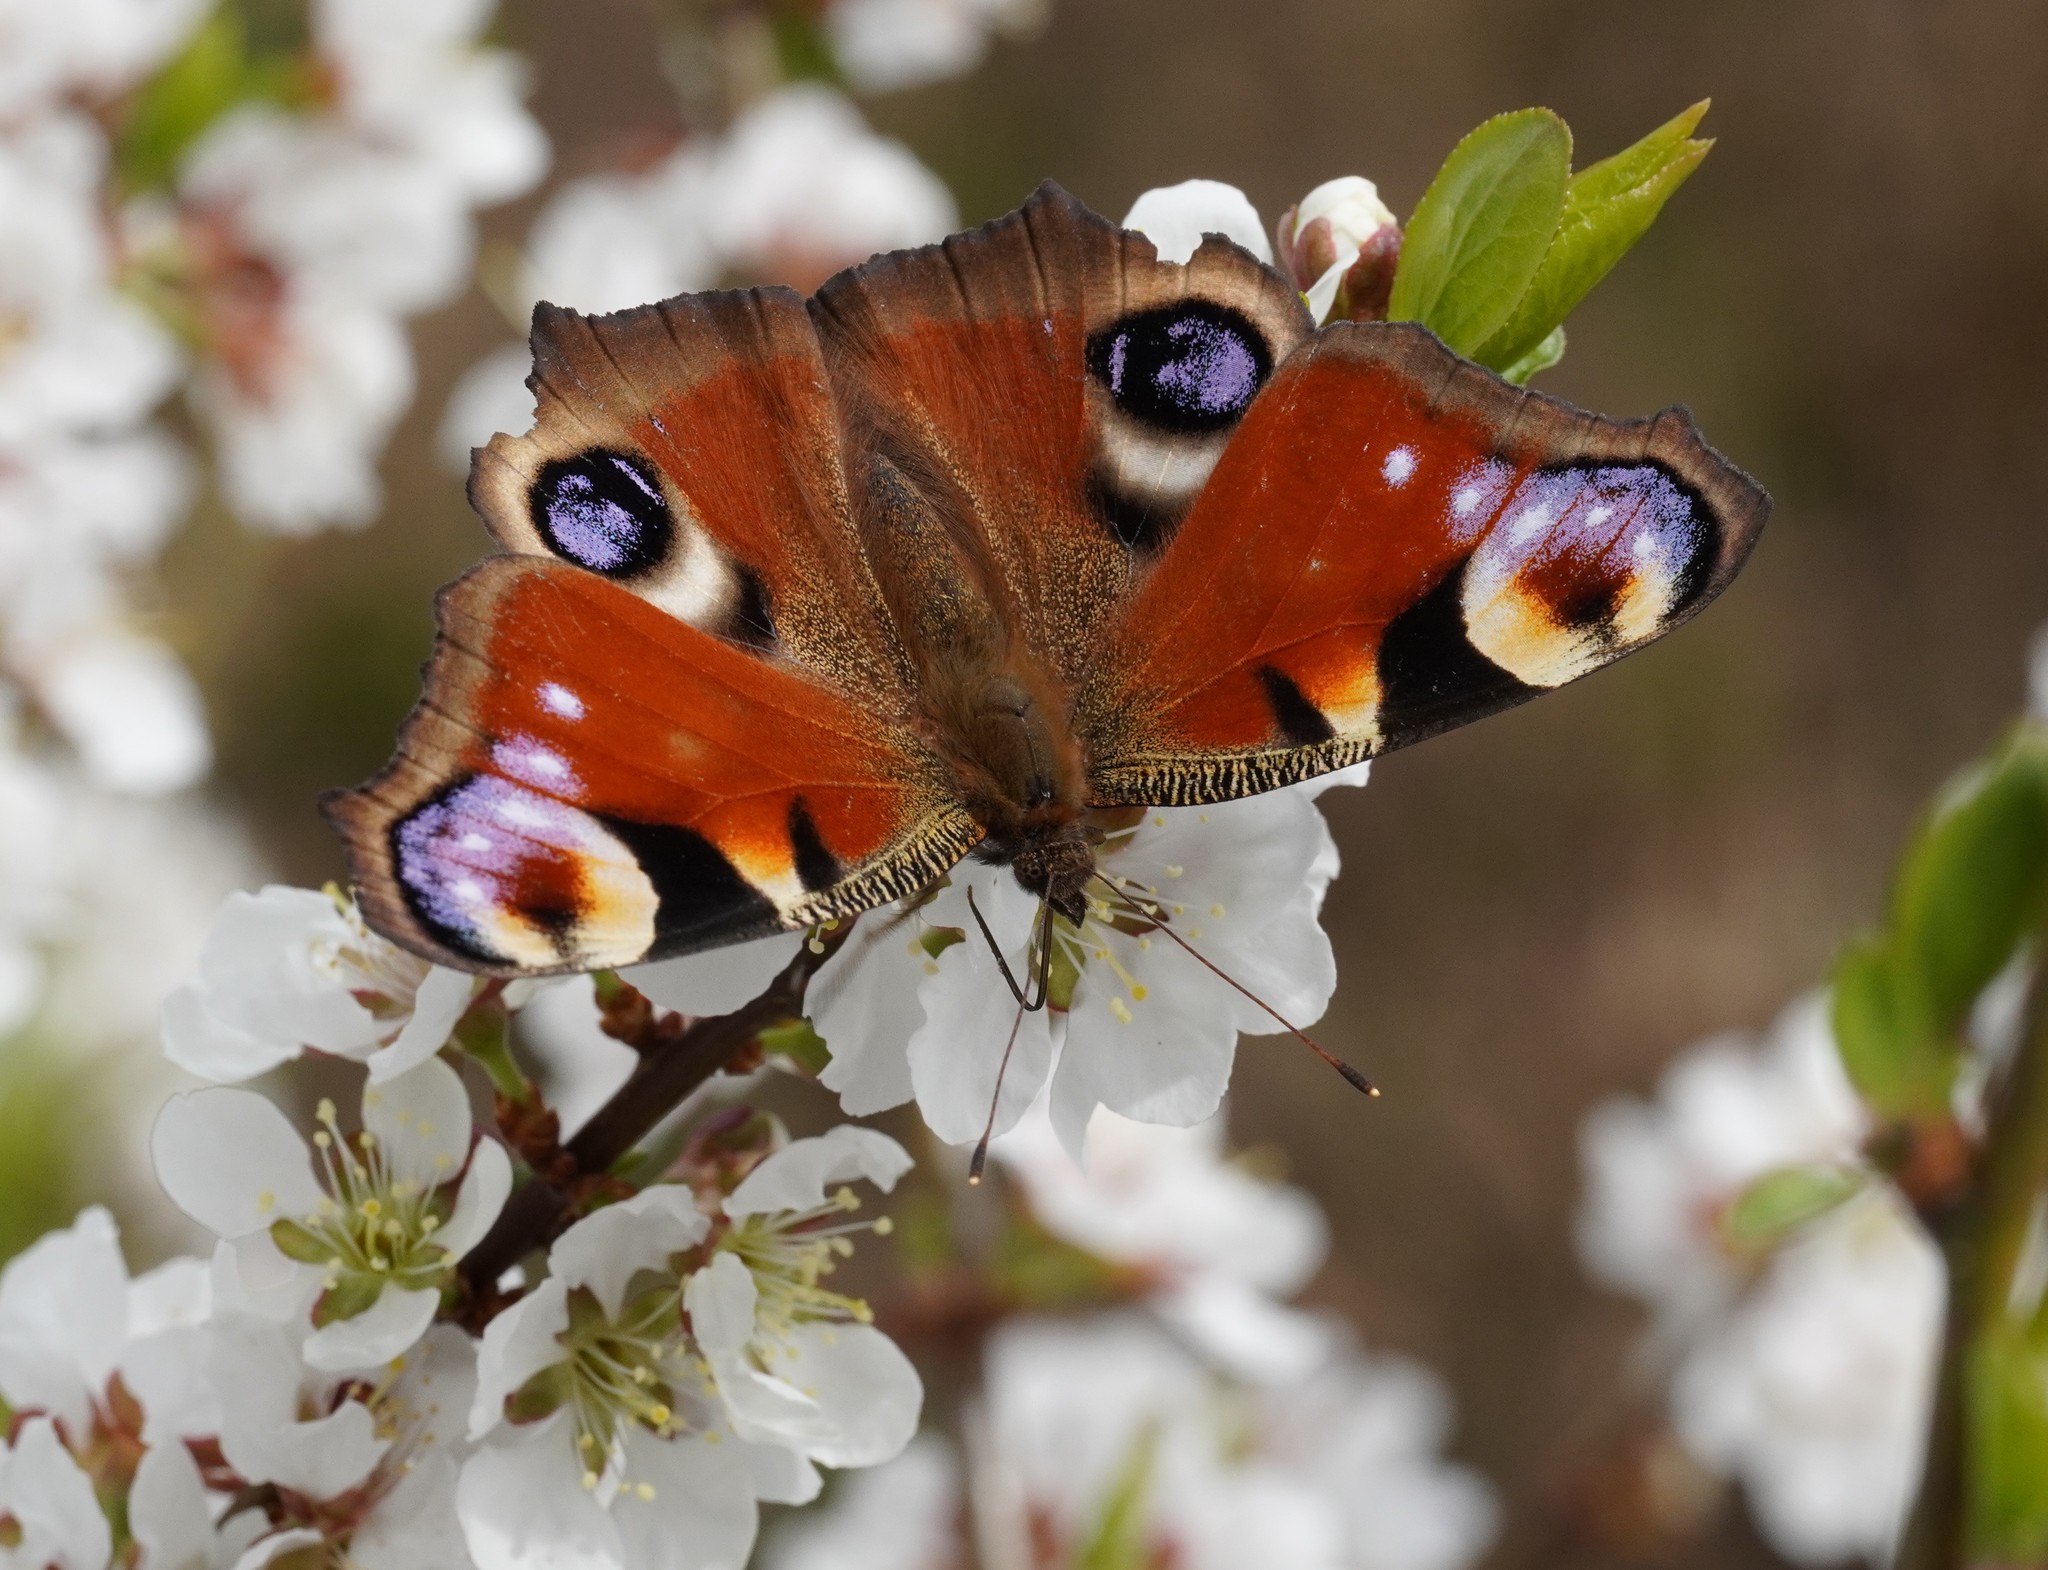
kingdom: Animalia
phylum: Arthropoda
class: Insecta
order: Lepidoptera
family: Nymphalidae
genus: Aglais
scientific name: Aglais io
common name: Peacock
